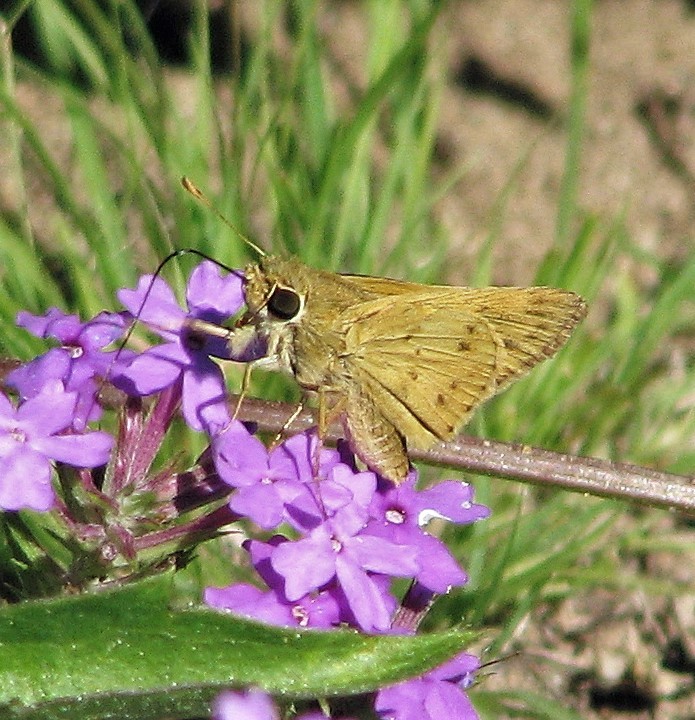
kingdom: Animalia
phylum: Arthropoda
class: Insecta
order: Lepidoptera
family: Hesperiidae
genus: Polites
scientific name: Polites vibex
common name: Whirlabout
